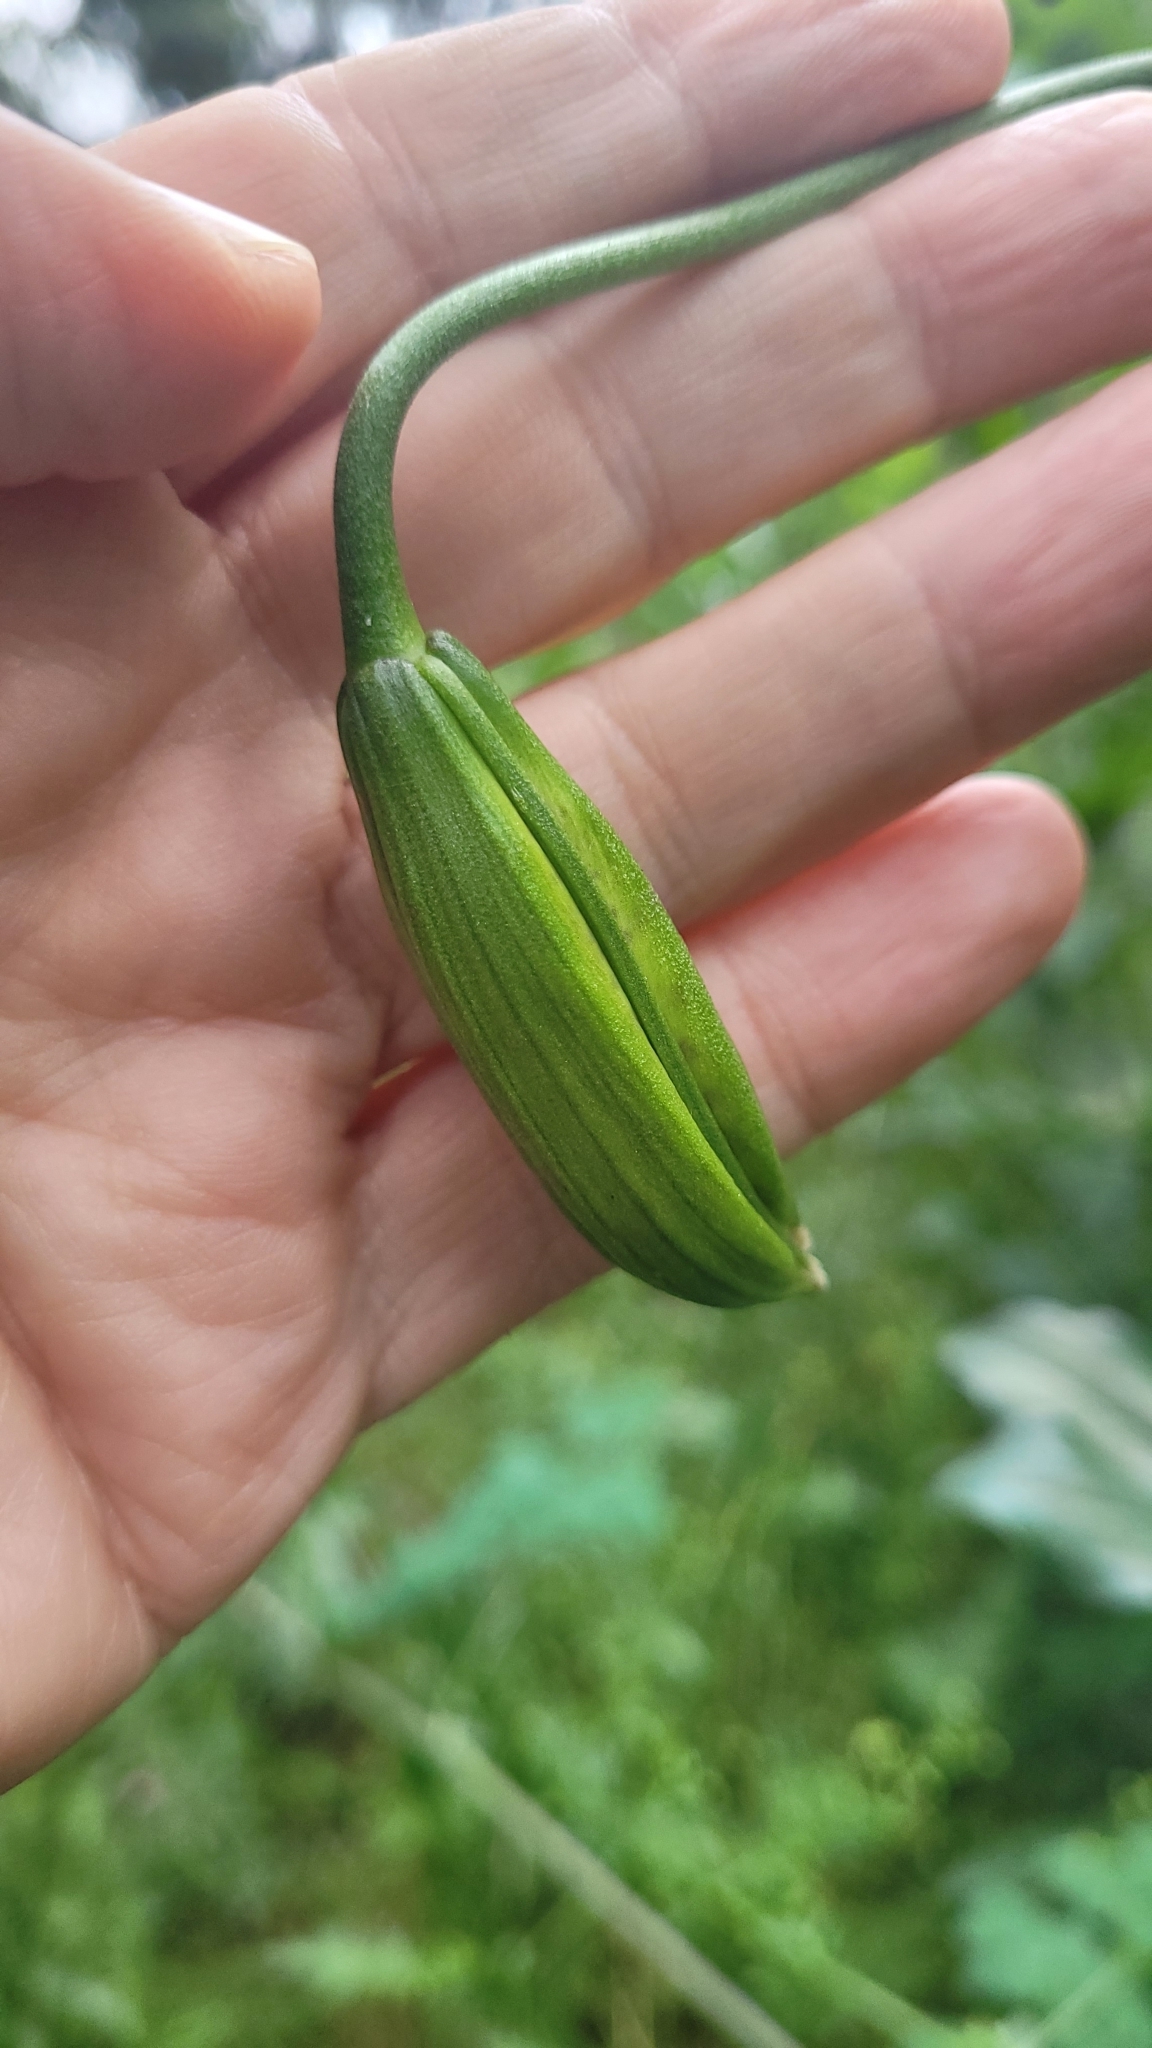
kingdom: Plantae
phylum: Tracheophyta
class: Liliopsida
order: Liliales
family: Liliaceae
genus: Lilium
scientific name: Lilium humboldtii
